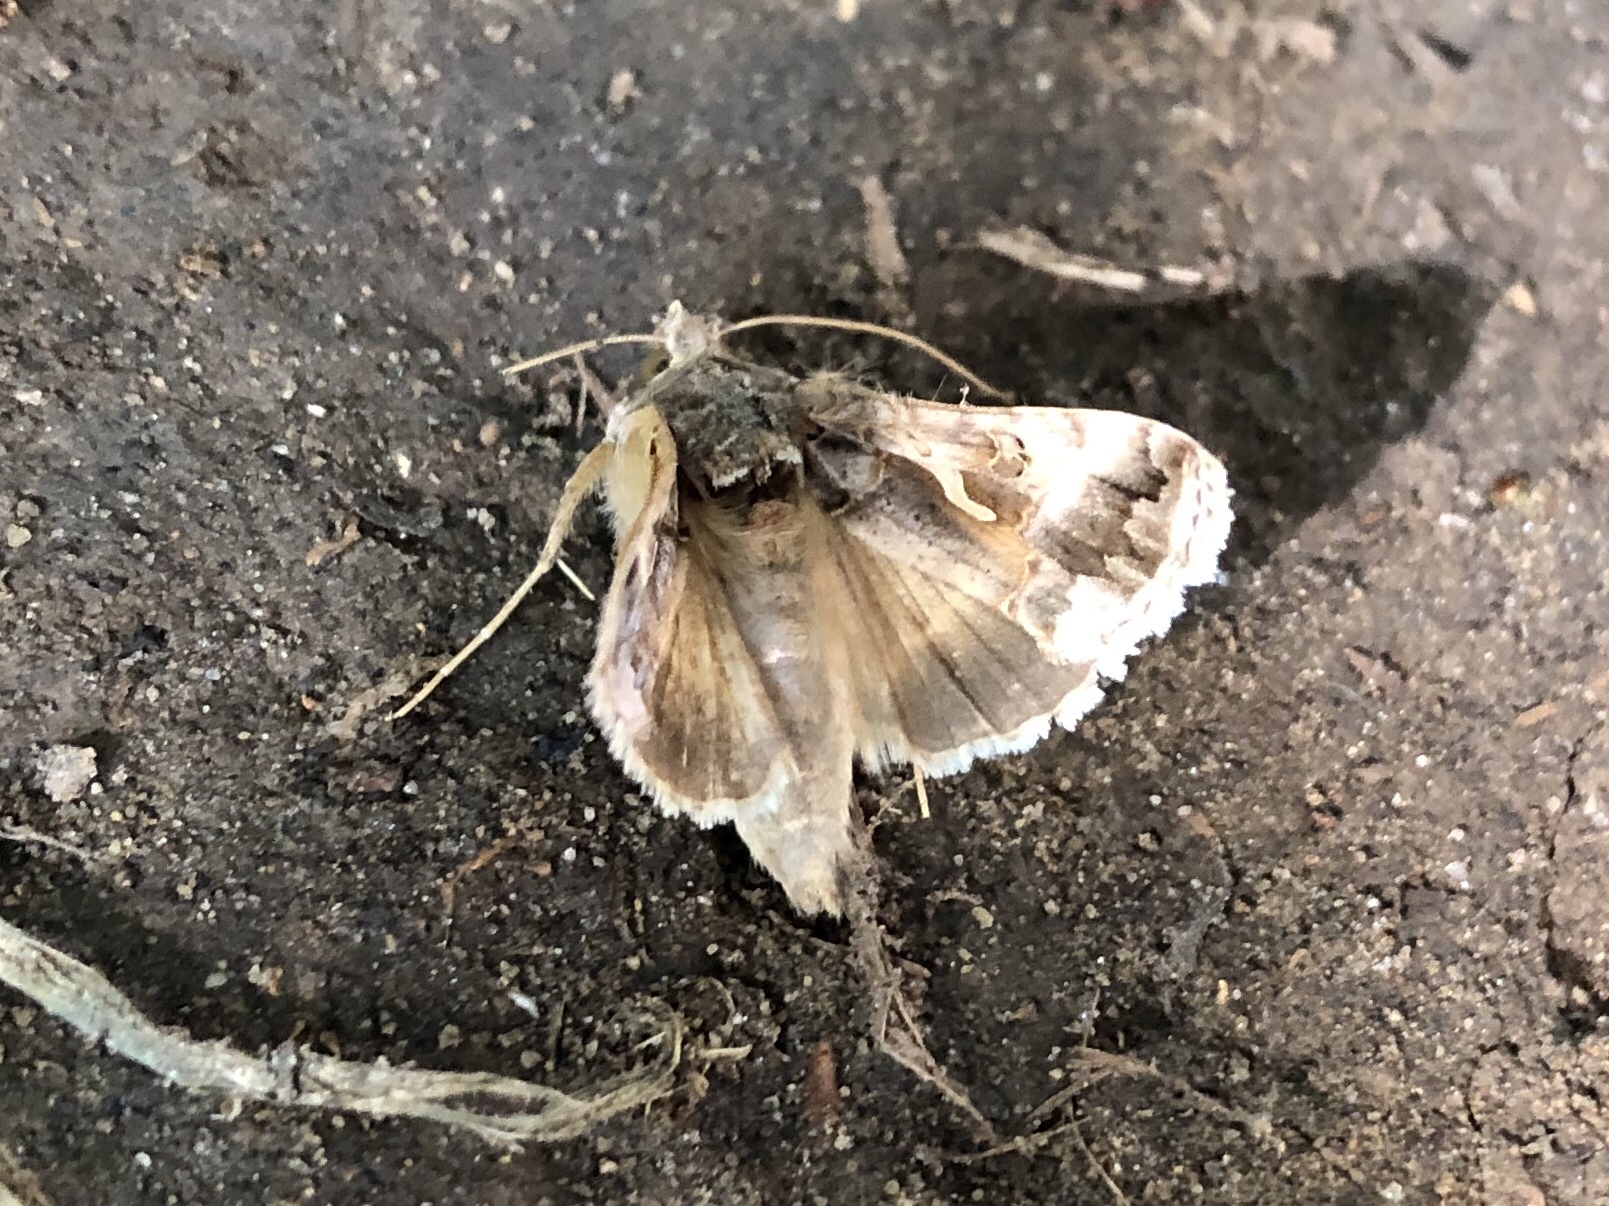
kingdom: Animalia
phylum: Arthropoda
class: Insecta
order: Lepidoptera
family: Noctuidae
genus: Autographa
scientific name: Autographa gamma
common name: Silver y
